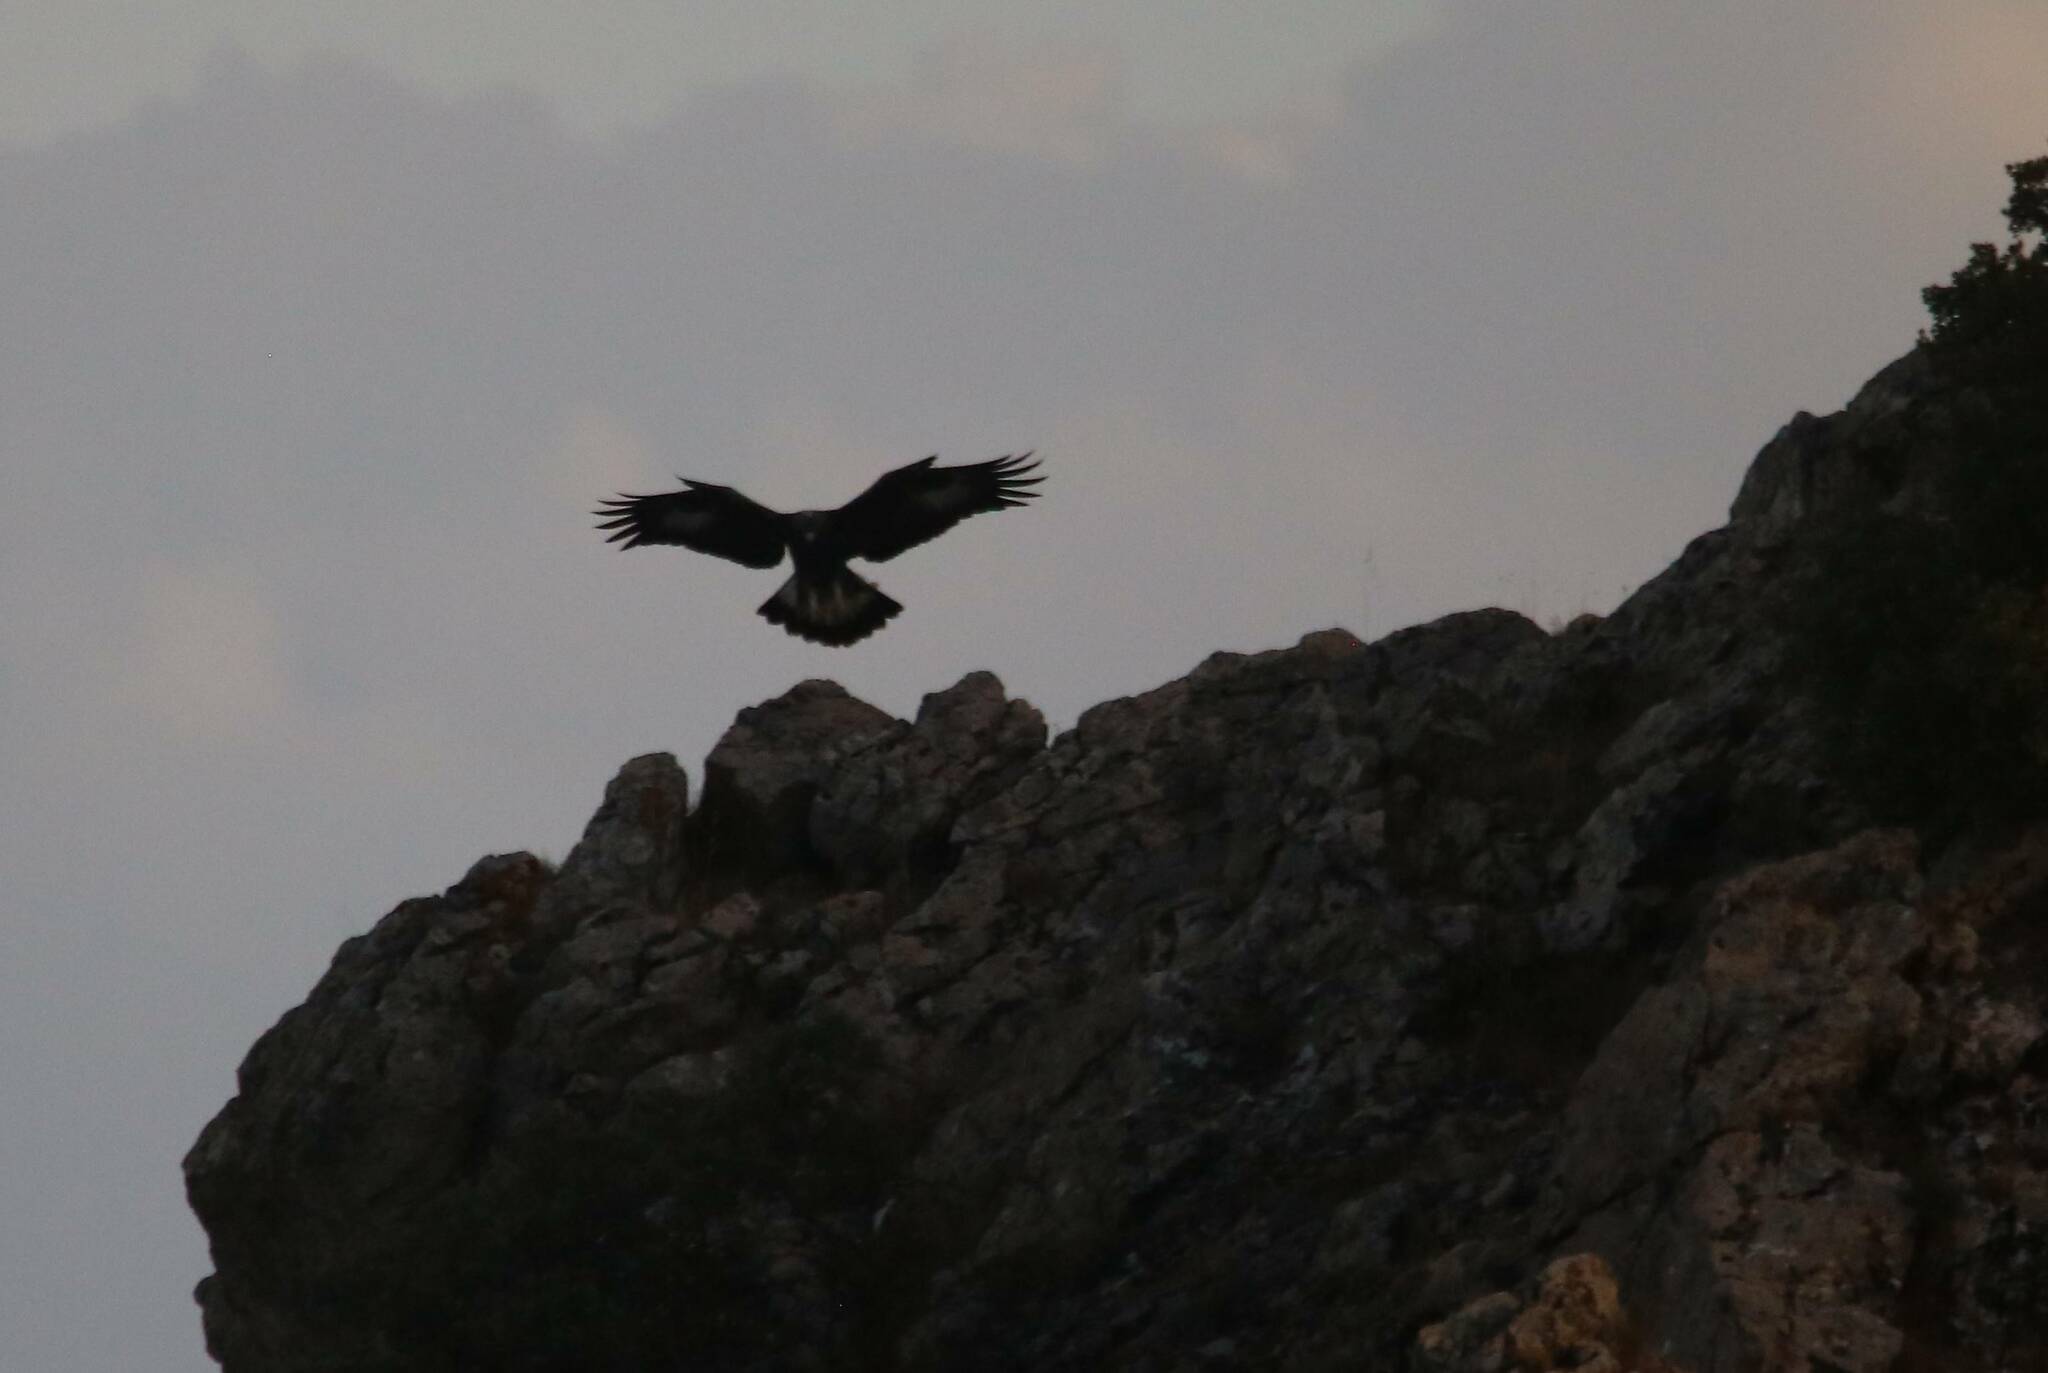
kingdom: Animalia
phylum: Chordata
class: Aves
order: Accipitriformes
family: Accipitridae
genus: Aquila
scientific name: Aquila chrysaetos
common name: Golden eagle
